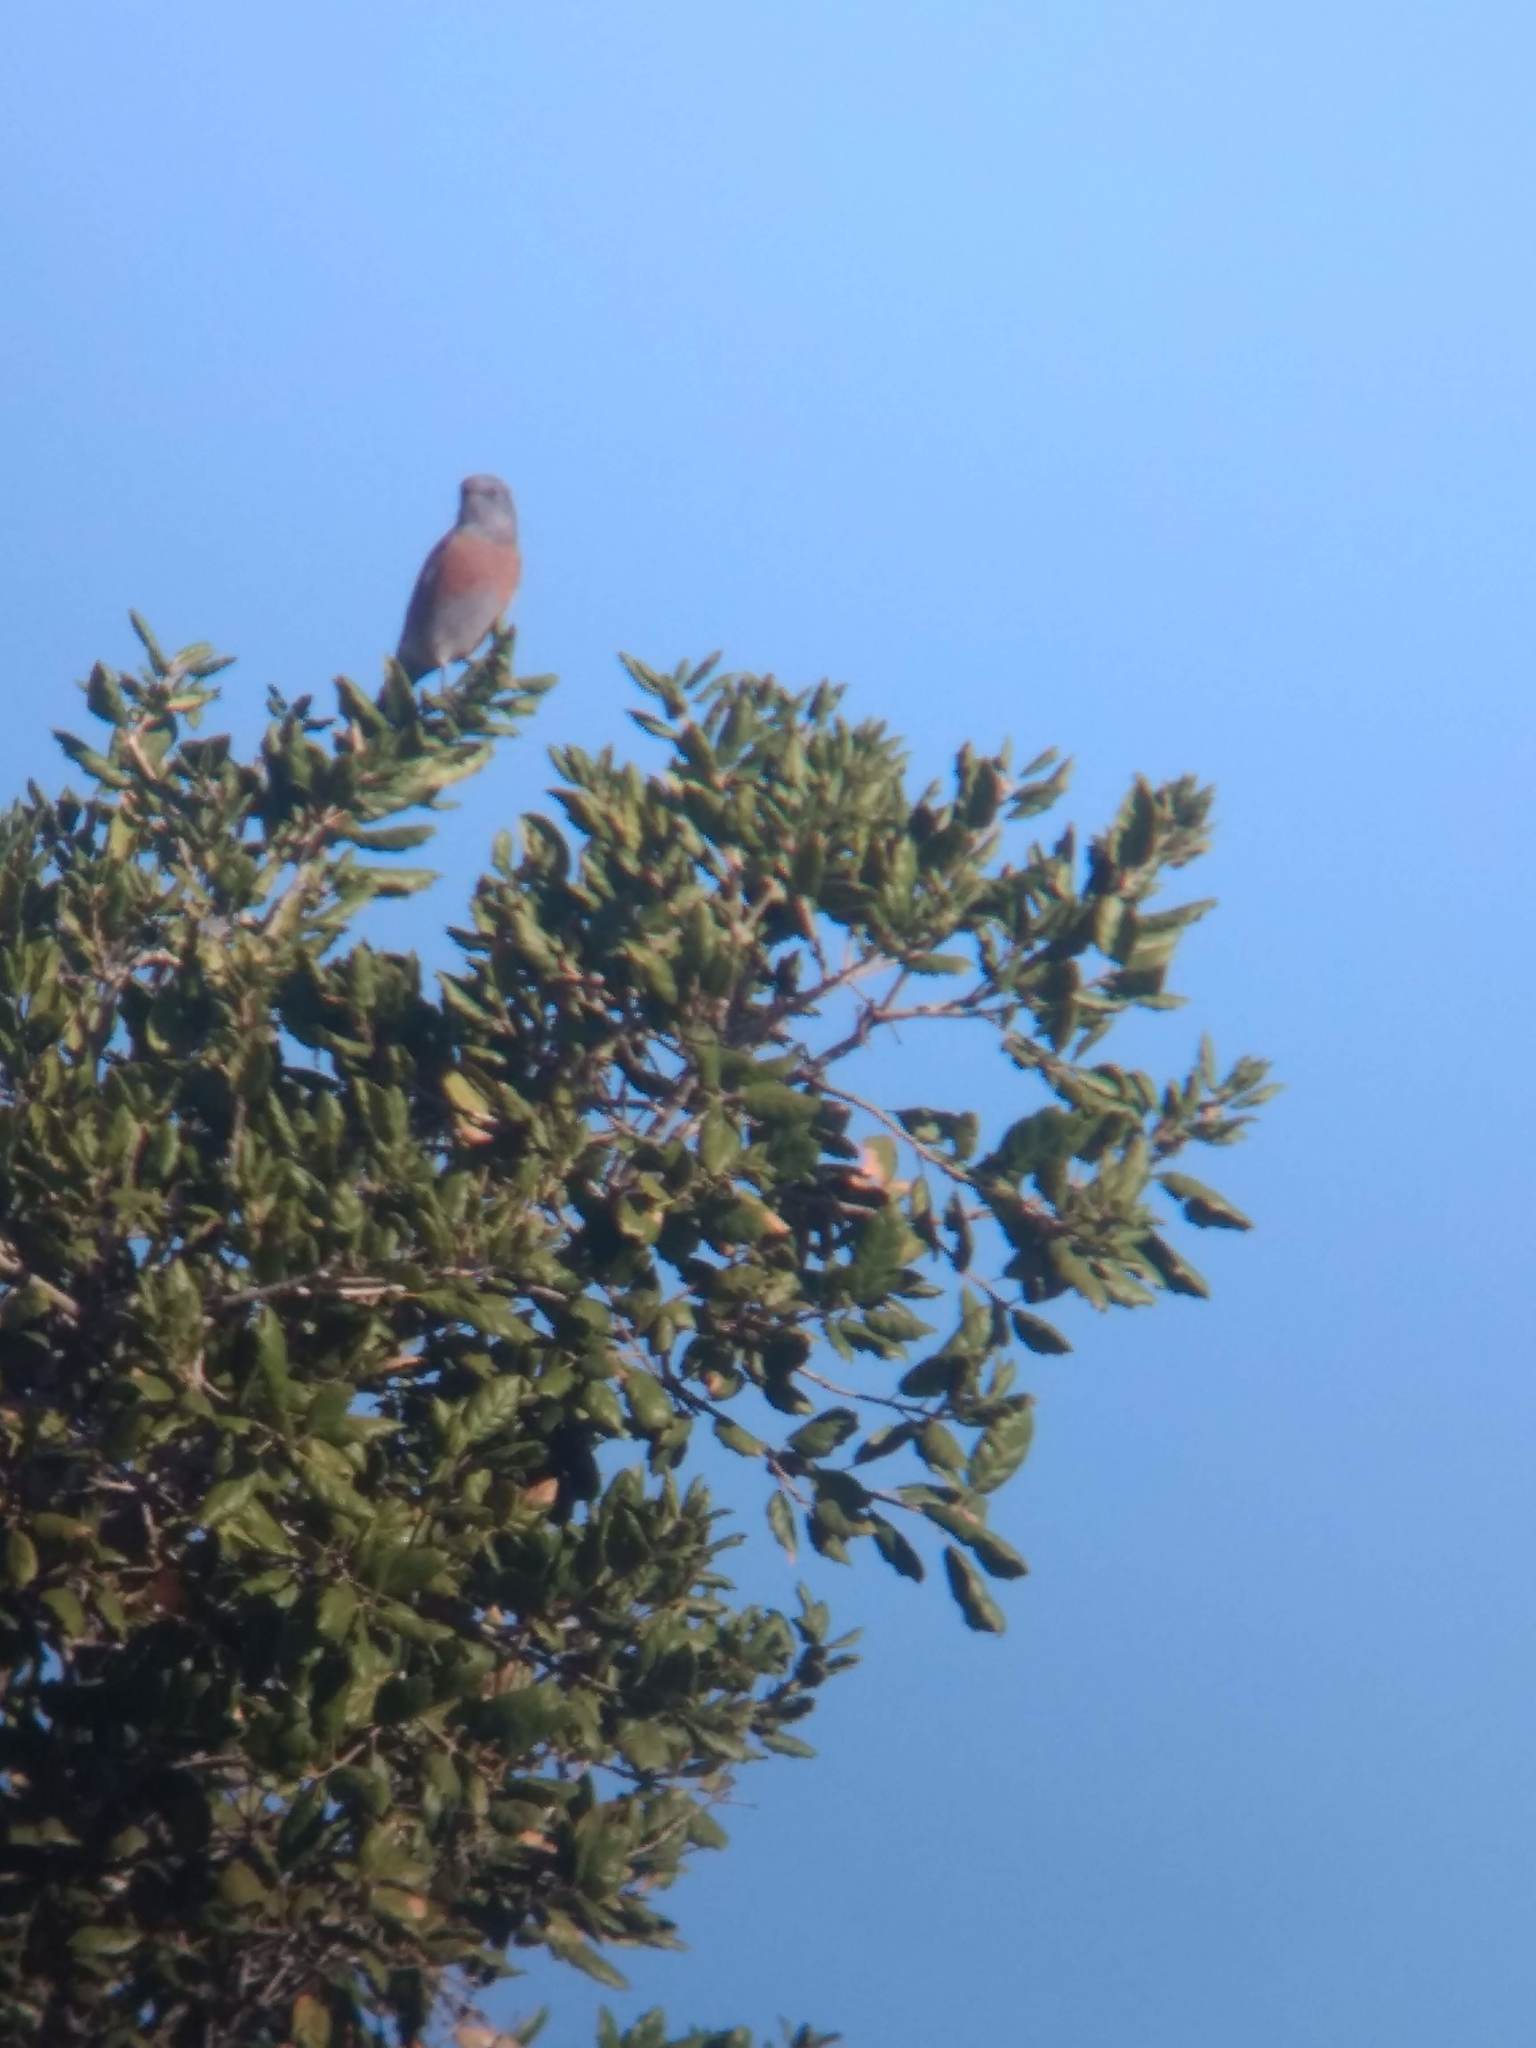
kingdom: Animalia
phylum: Chordata
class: Aves
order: Passeriformes
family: Turdidae
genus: Sialia
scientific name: Sialia mexicana
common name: Western bluebird
